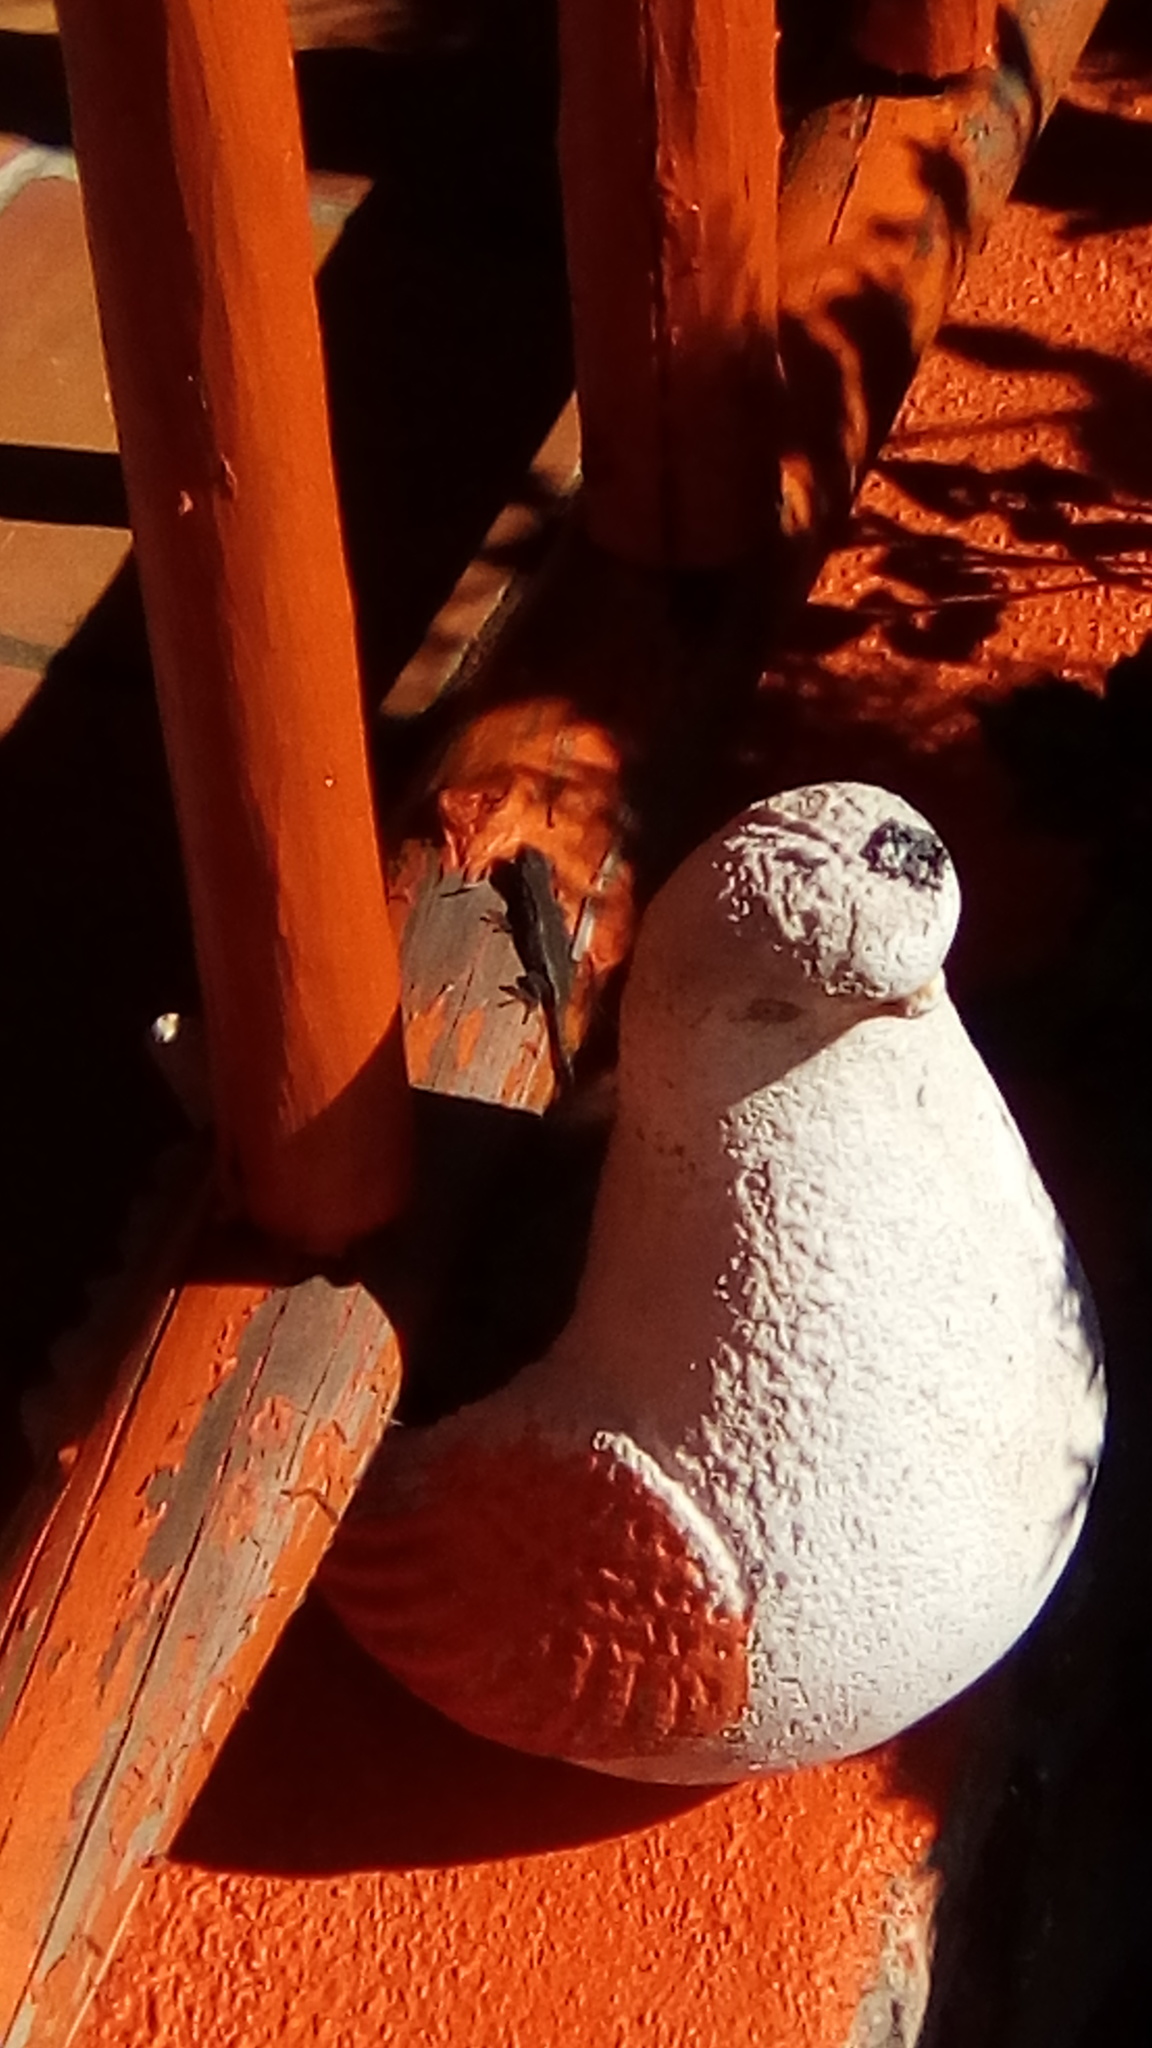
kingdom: Animalia
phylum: Chordata
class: Squamata
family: Phrynosomatidae
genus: Sceloporus
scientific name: Sceloporus grammicus
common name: Mesquite lizard
